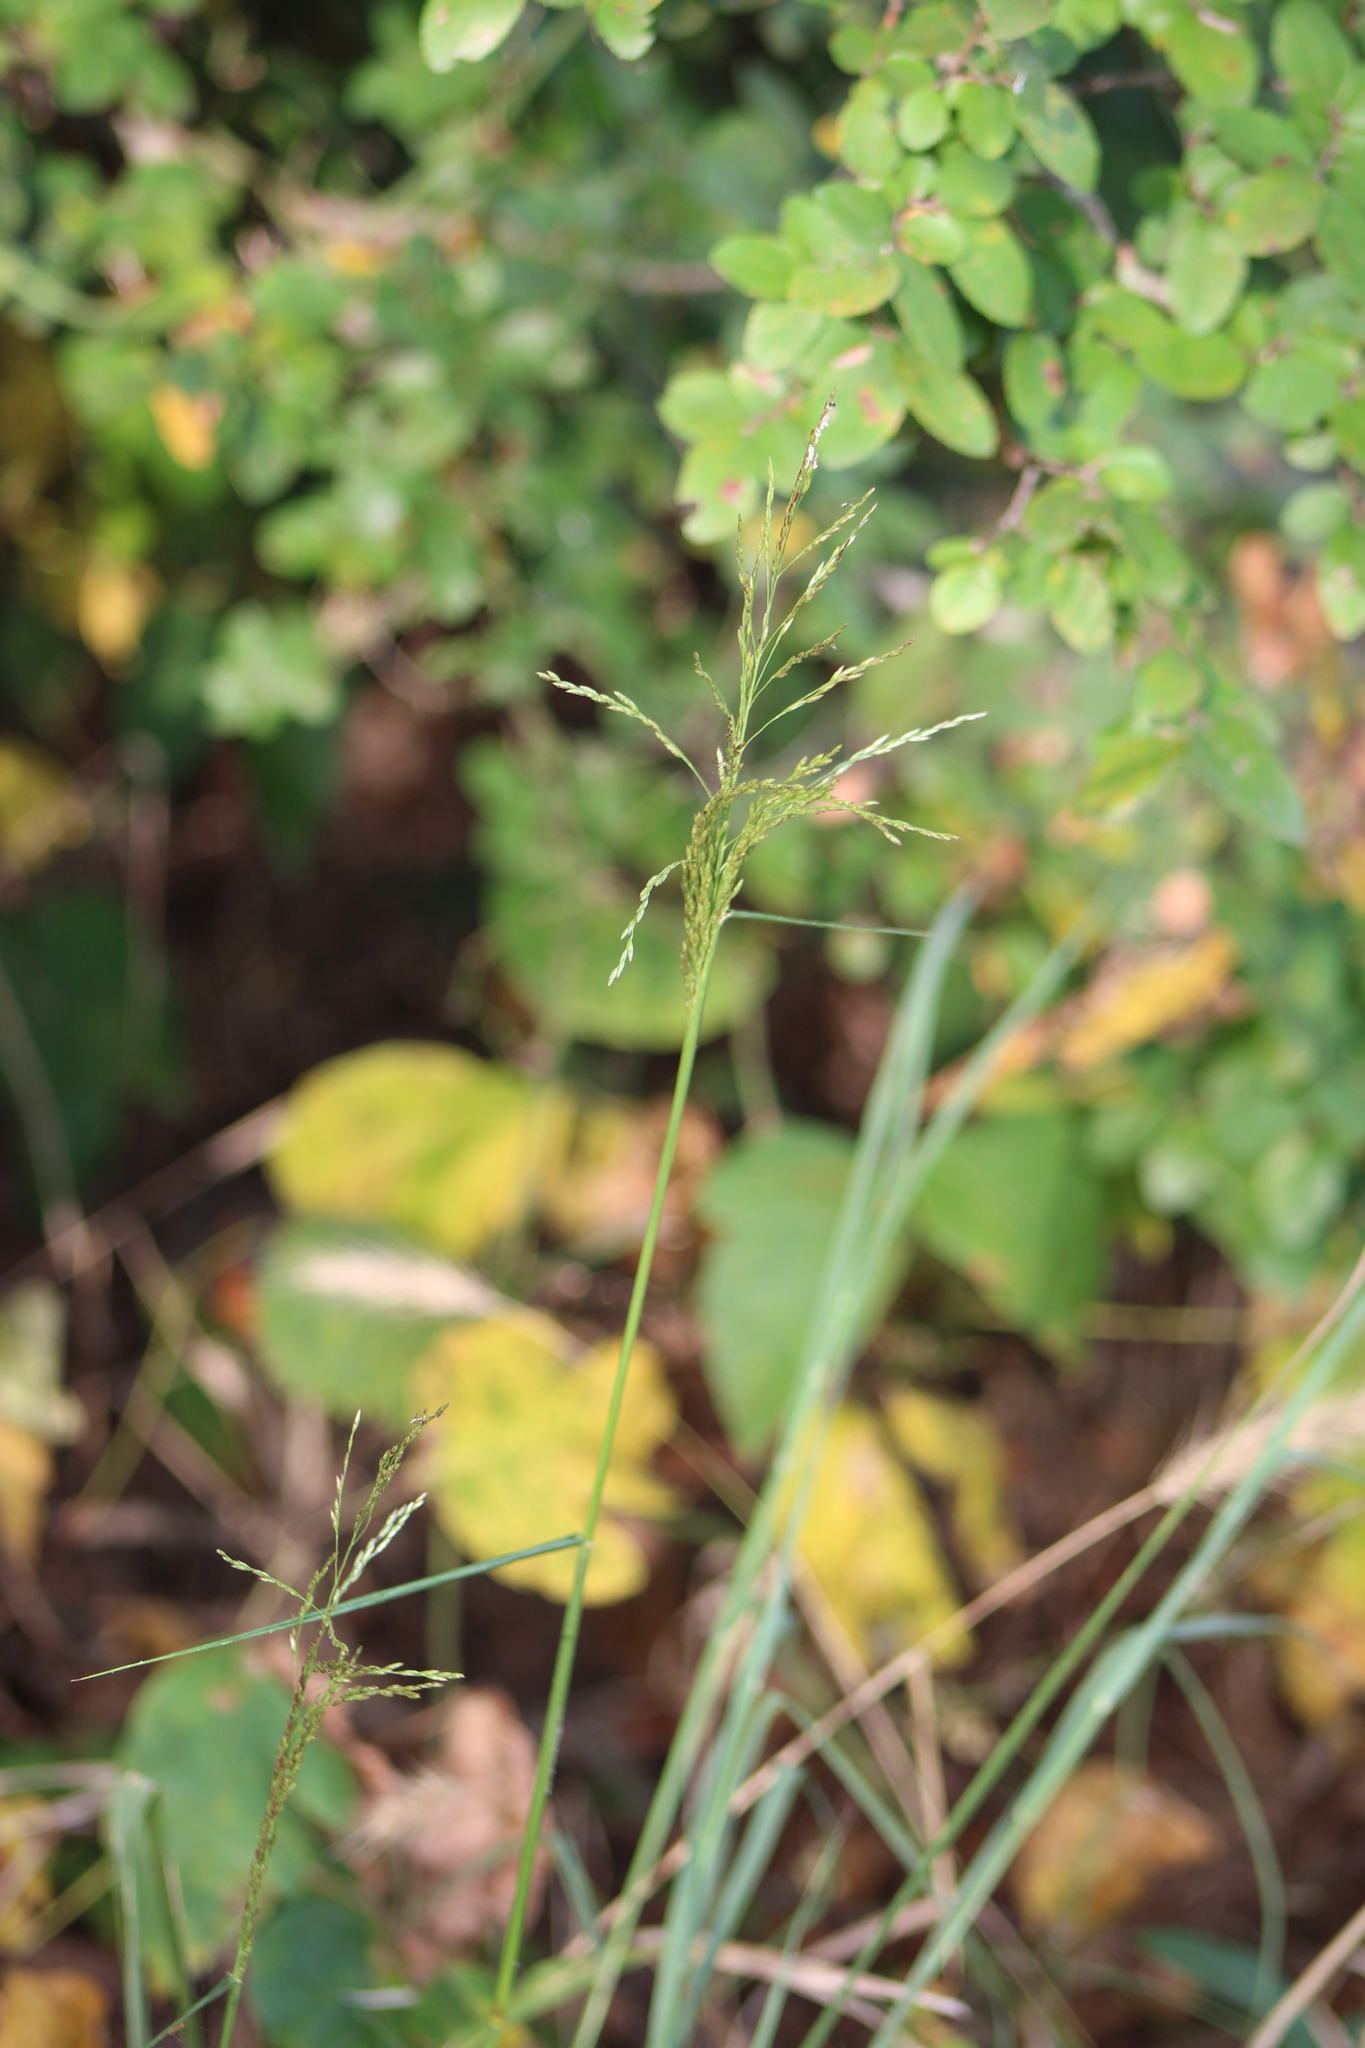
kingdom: Plantae
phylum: Tracheophyta
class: Liliopsida
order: Poales
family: Poaceae
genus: Tridens
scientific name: Tridens flavus
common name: Purpletop
